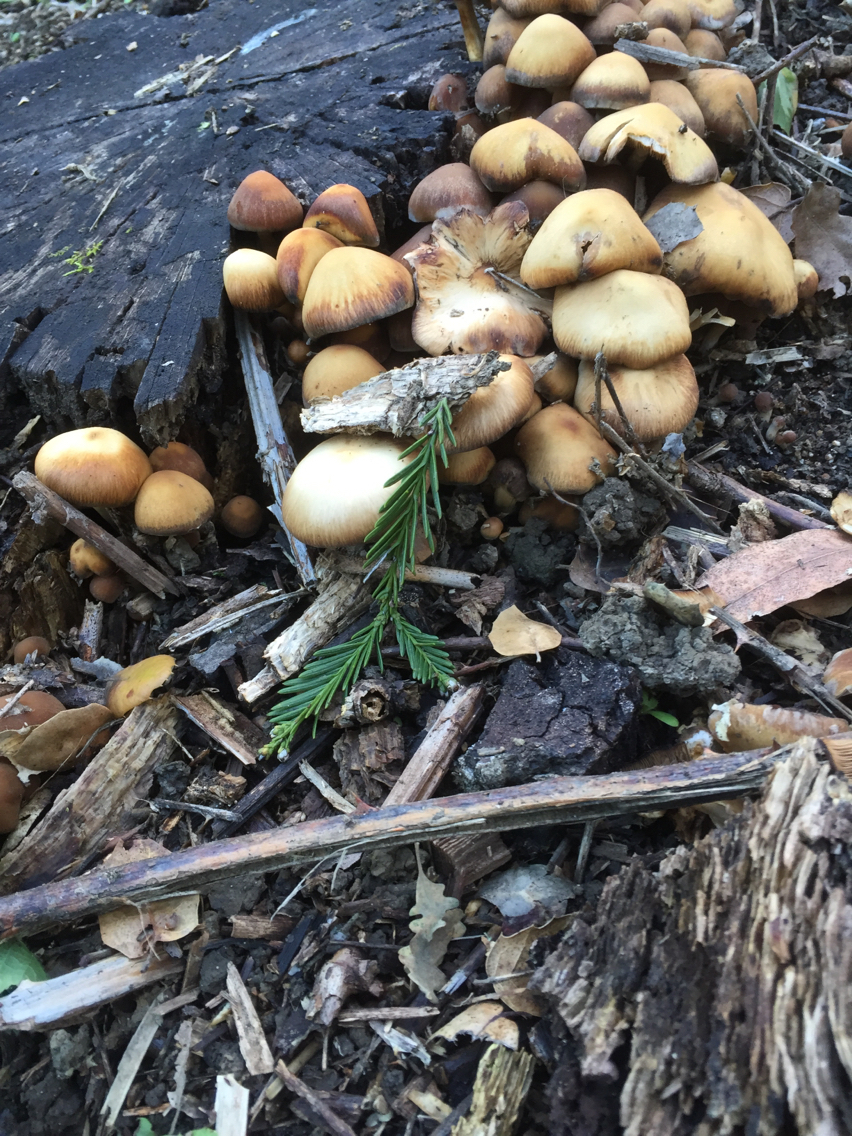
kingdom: Fungi
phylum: Basidiomycota
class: Agaricomycetes
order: Agaricales
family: Strophariaceae
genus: Hypholoma
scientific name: Hypholoma fasciculare
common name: Sulphur tuft
